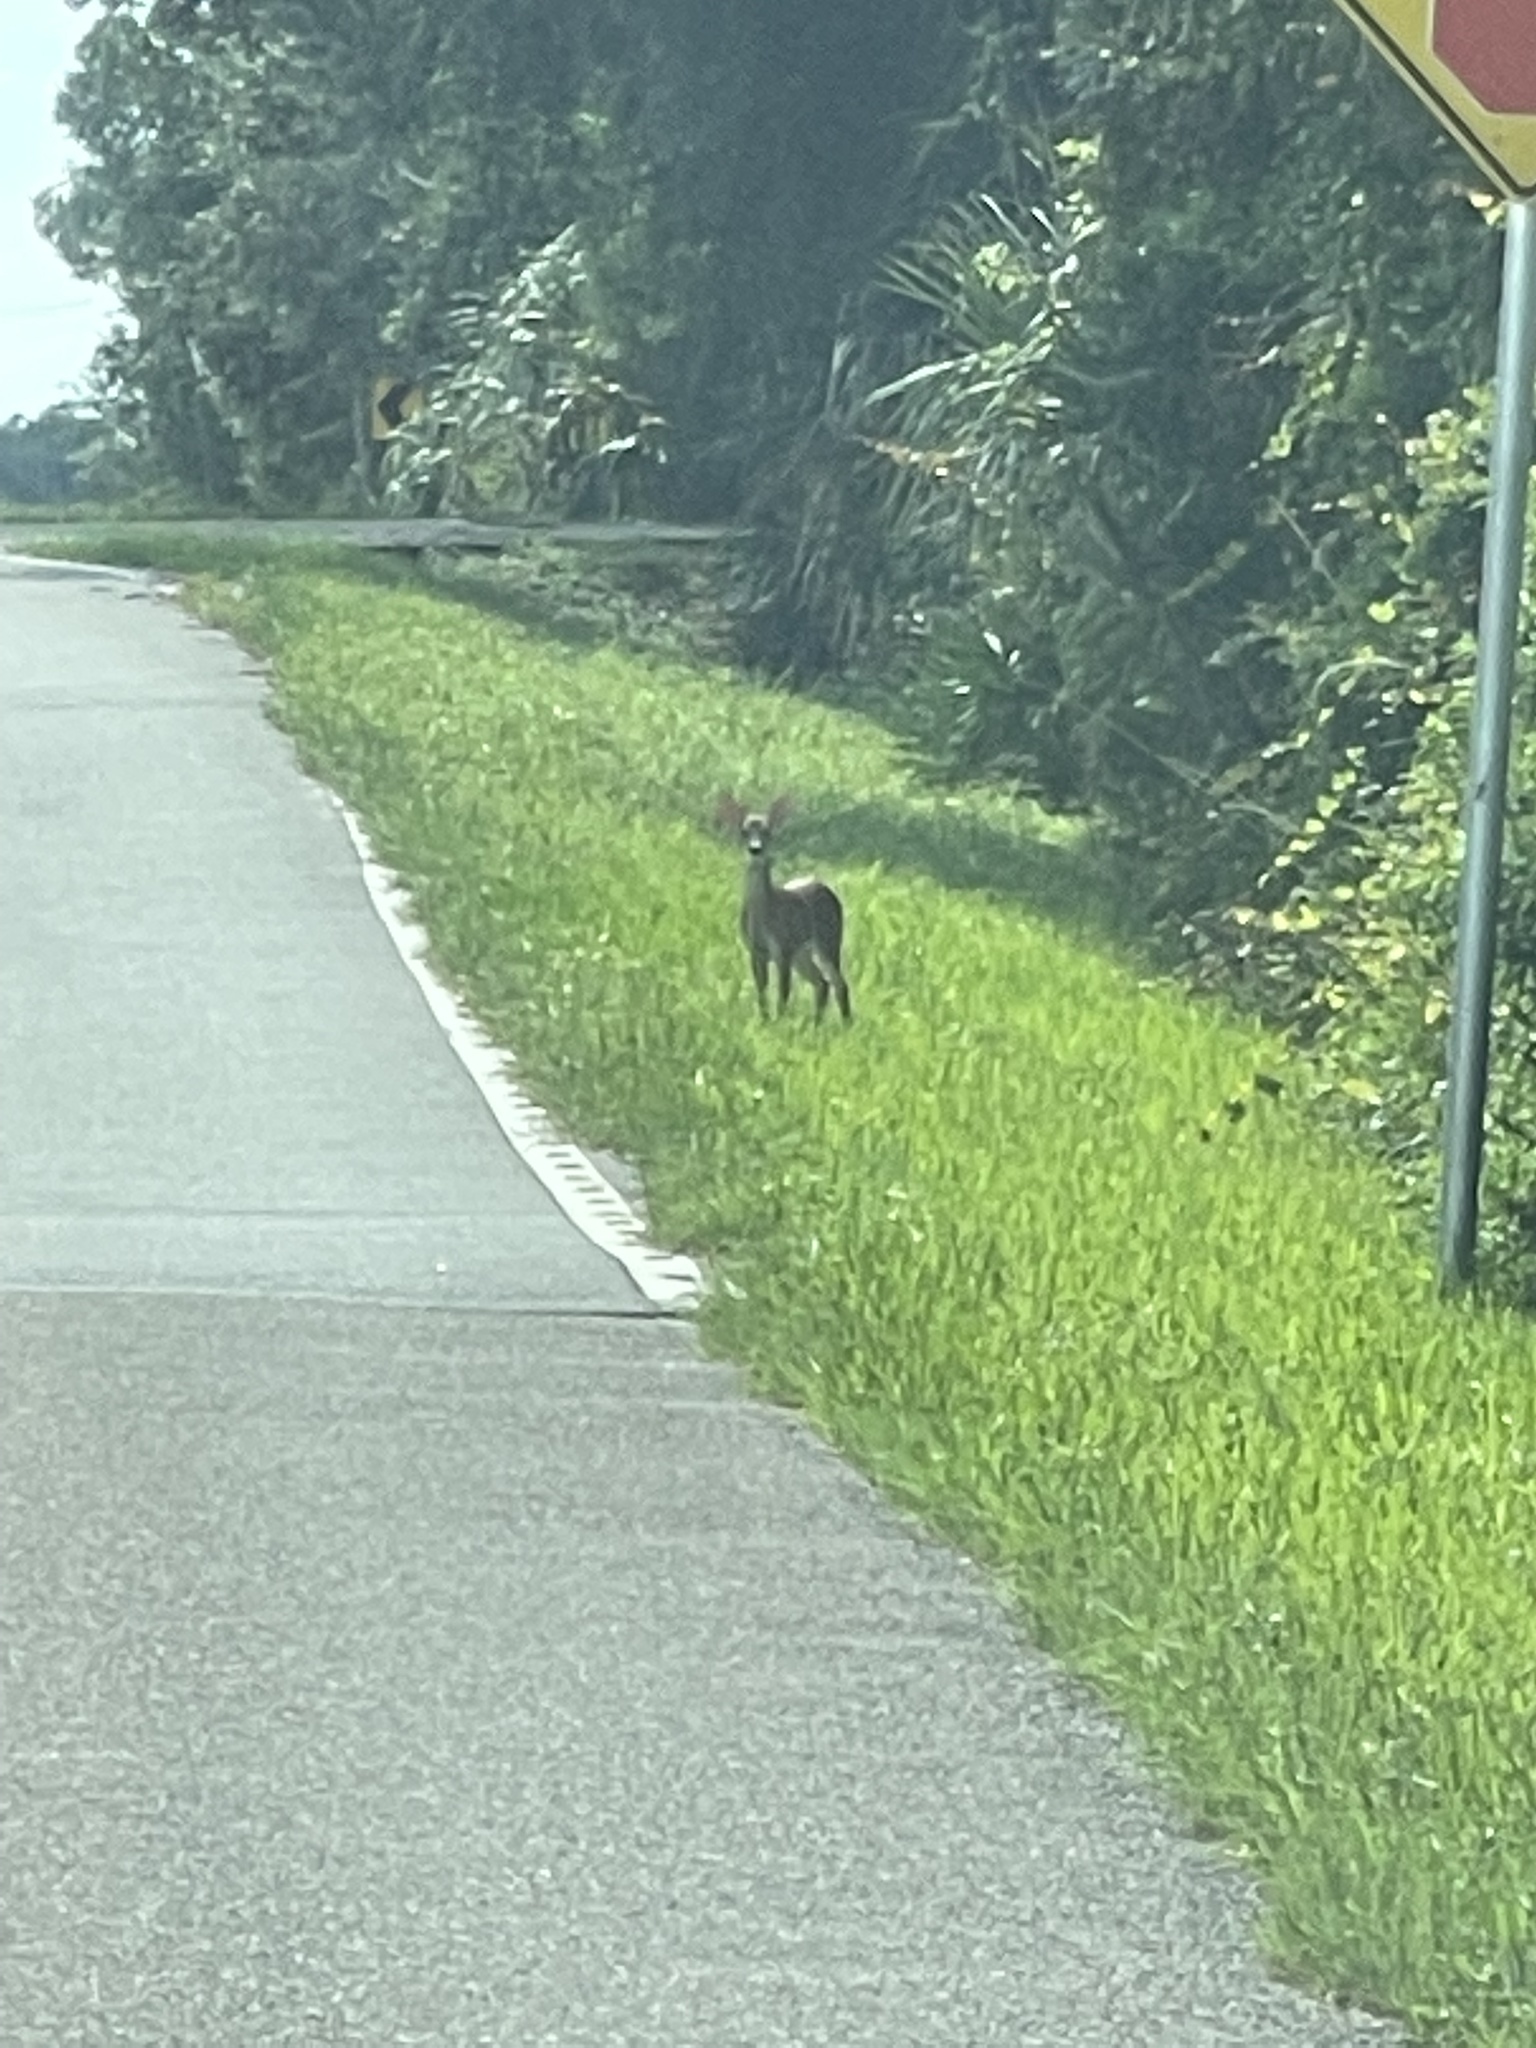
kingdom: Animalia
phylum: Chordata
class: Mammalia
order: Artiodactyla
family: Cervidae
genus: Odocoileus
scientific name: Odocoileus virginianus
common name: White-tailed deer
